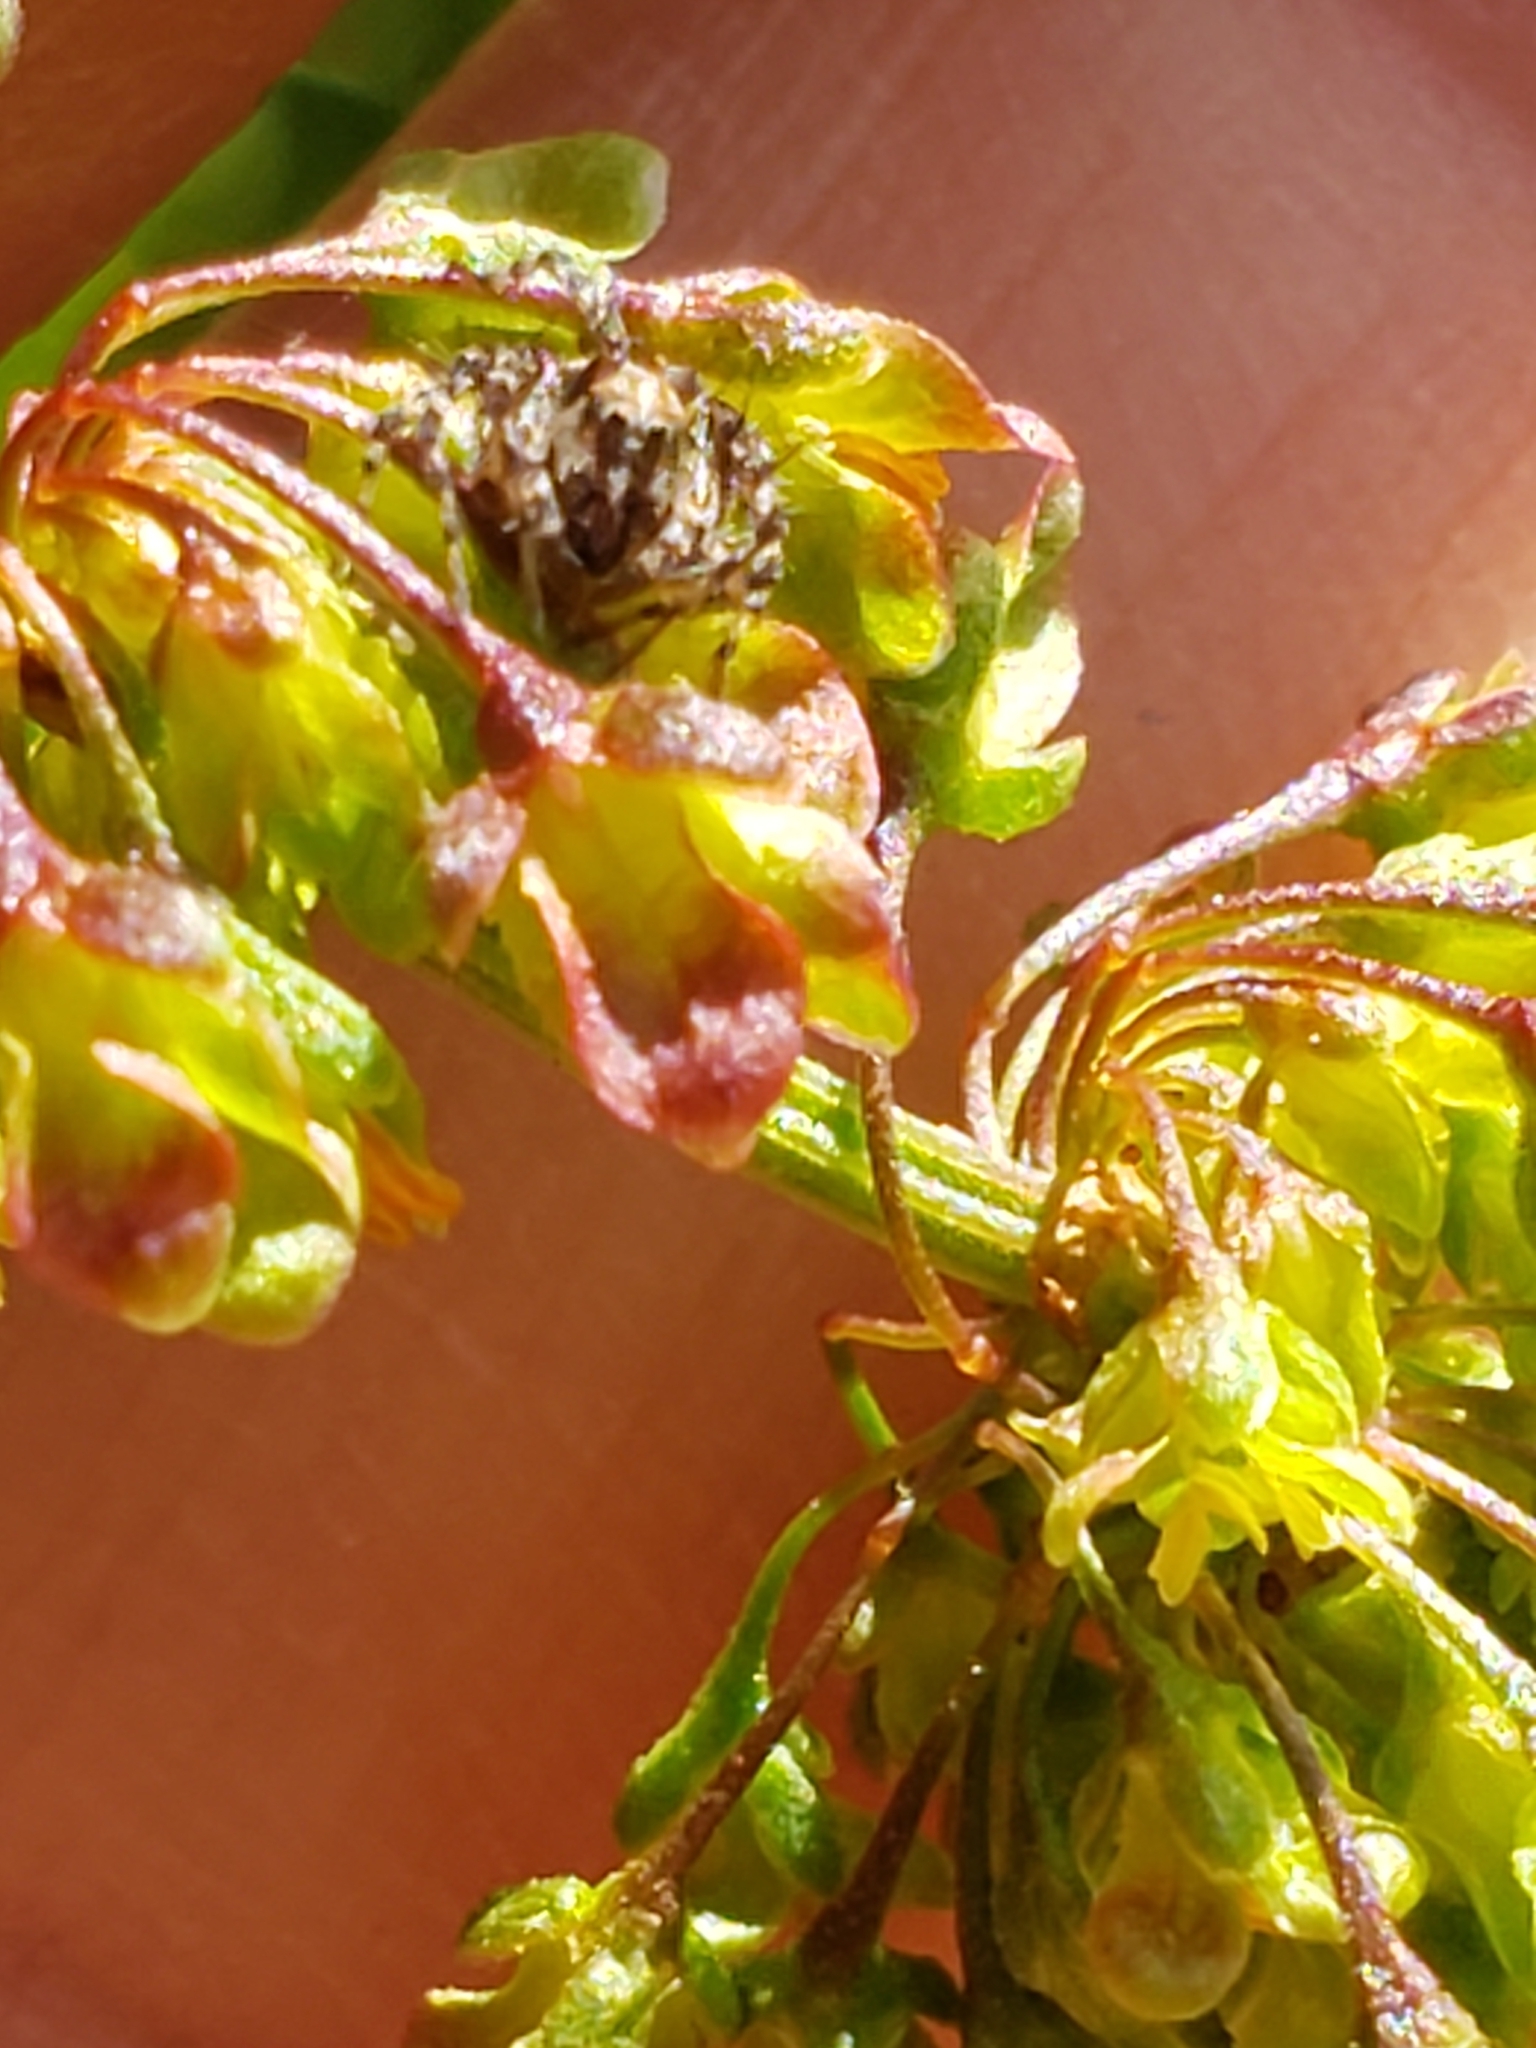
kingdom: Animalia
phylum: Arthropoda
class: Arachnida
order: Araneae
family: Oxyopidae
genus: Oxyopes
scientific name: Oxyopes scalaris
